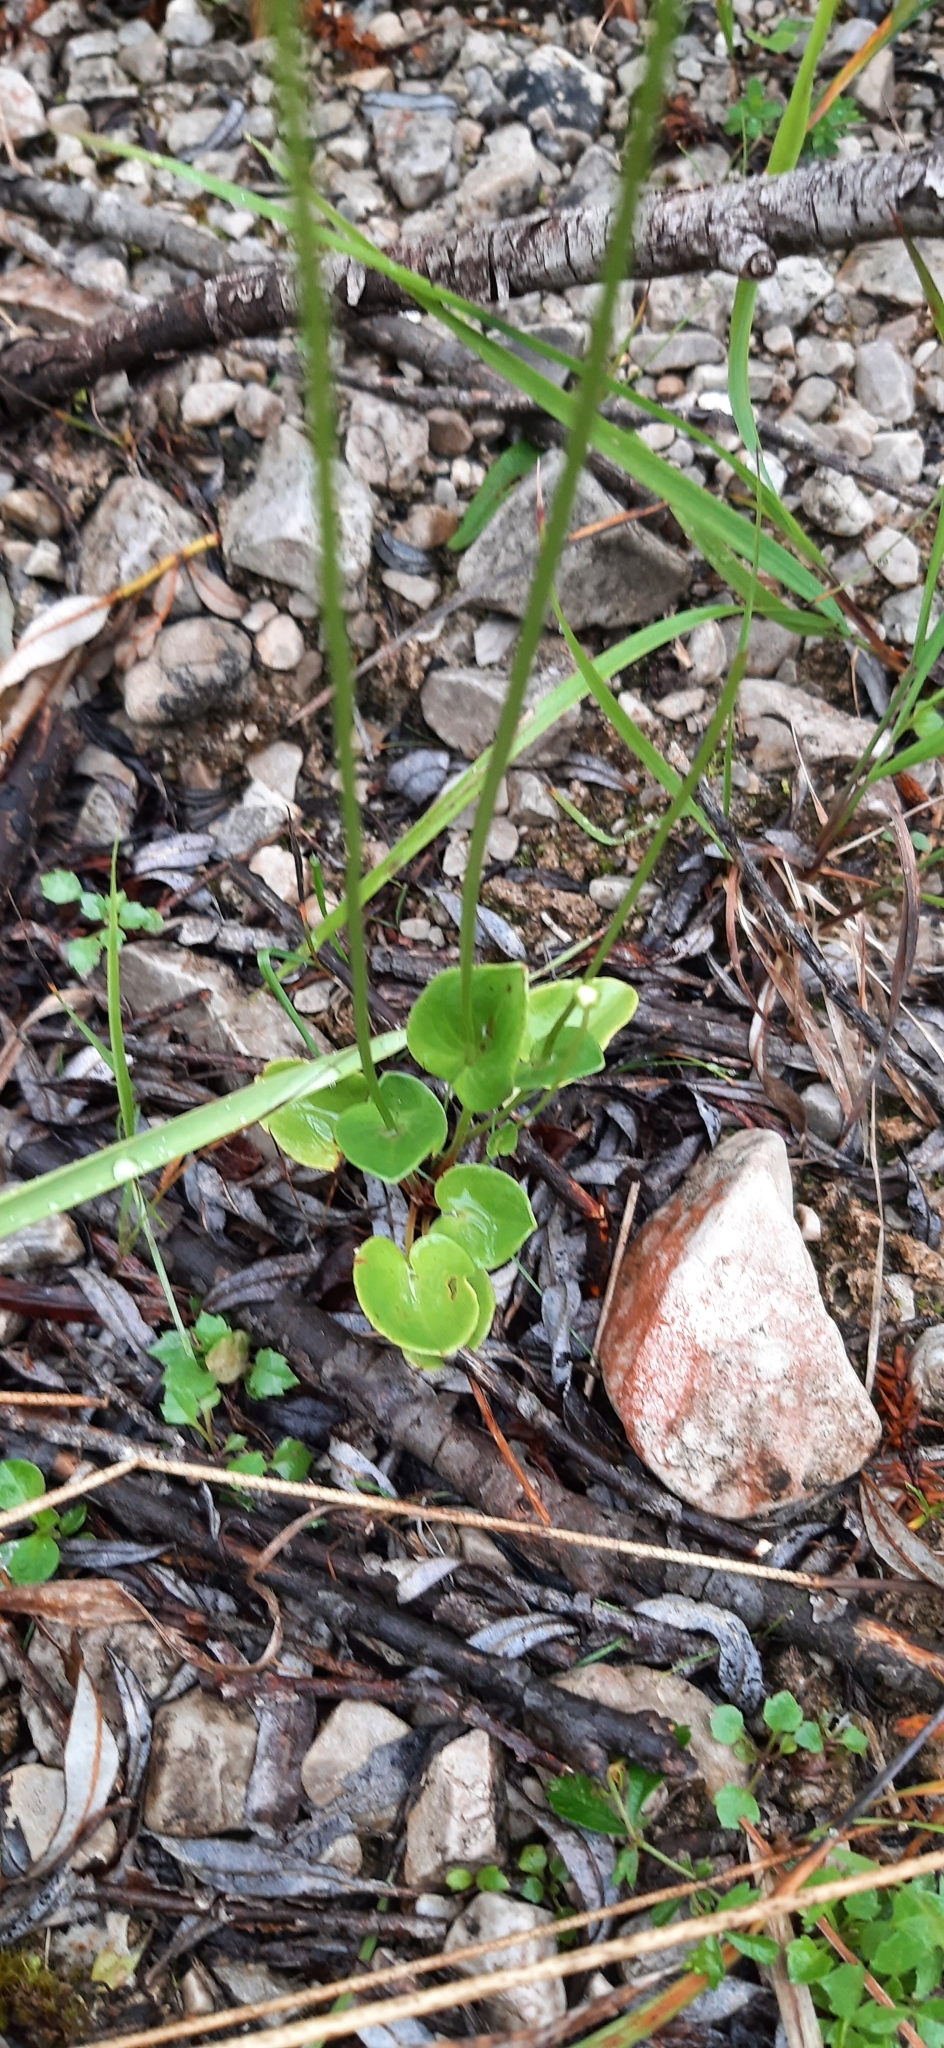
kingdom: Plantae
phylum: Tracheophyta
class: Magnoliopsida
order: Celastrales
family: Parnassiaceae
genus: Parnassia
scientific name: Parnassia palustris
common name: Grass-of-parnassus
